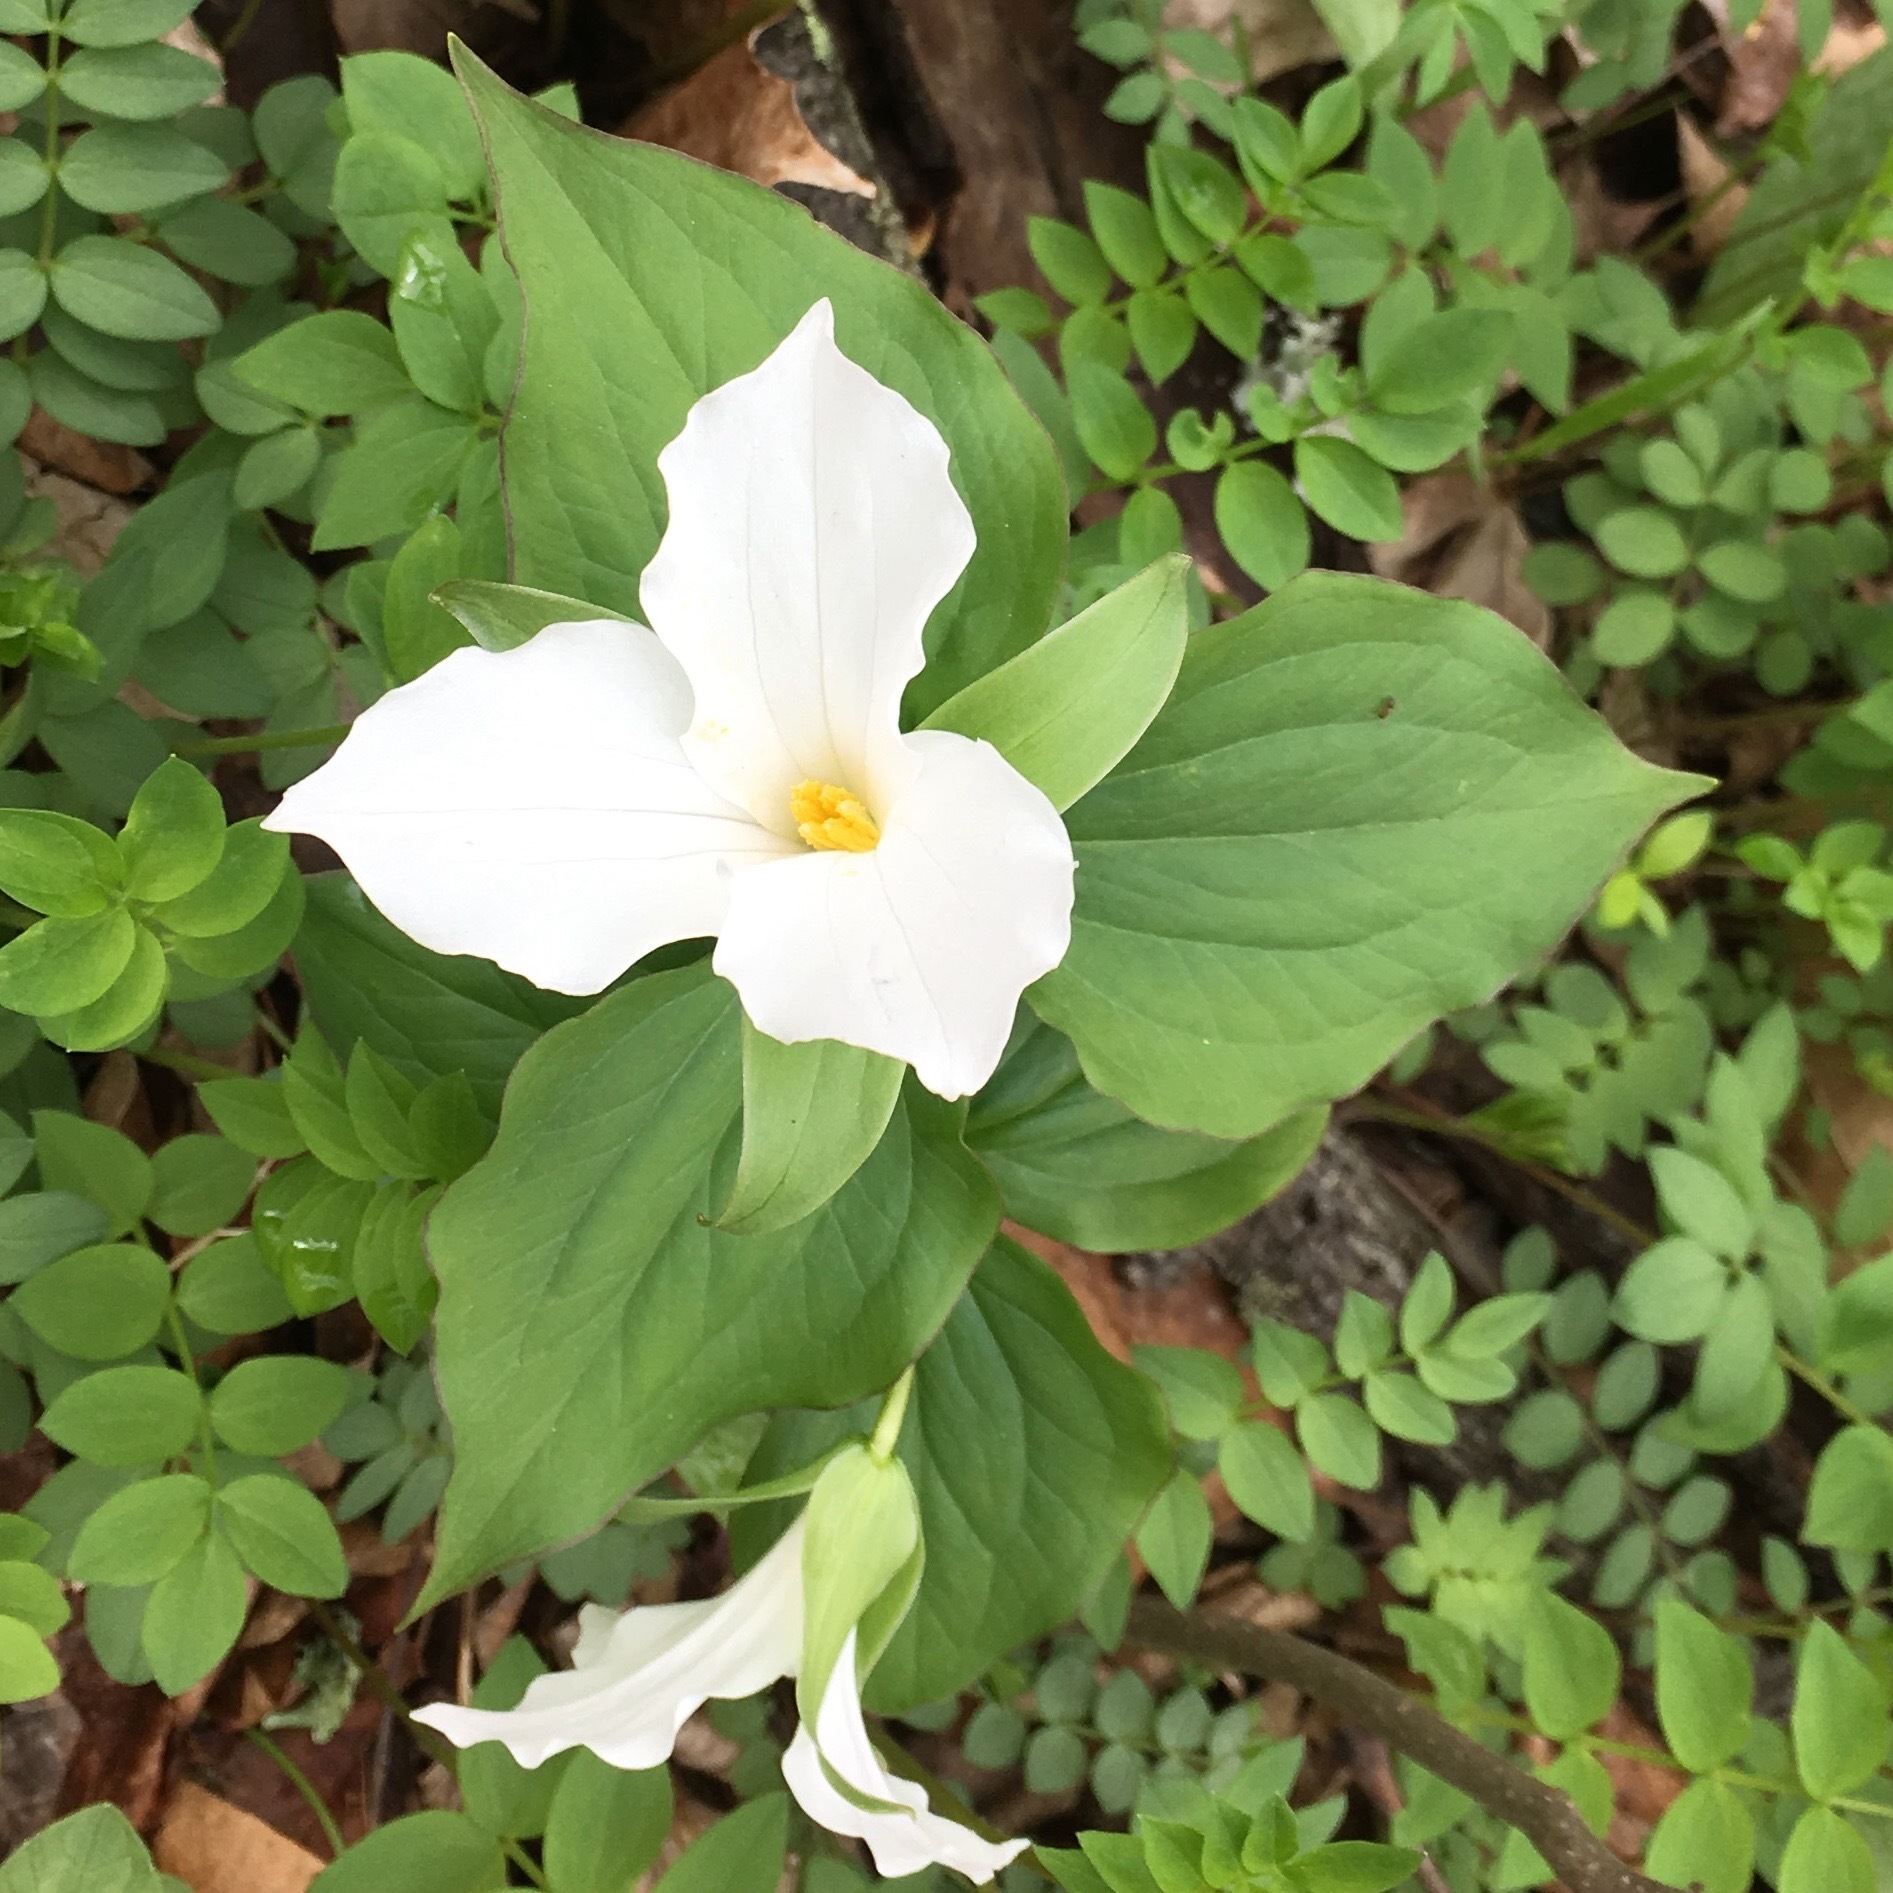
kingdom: Plantae
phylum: Tracheophyta
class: Liliopsida
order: Liliales
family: Melanthiaceae
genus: Trillium
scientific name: Trillium grandiflorum
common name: Great white trillium
